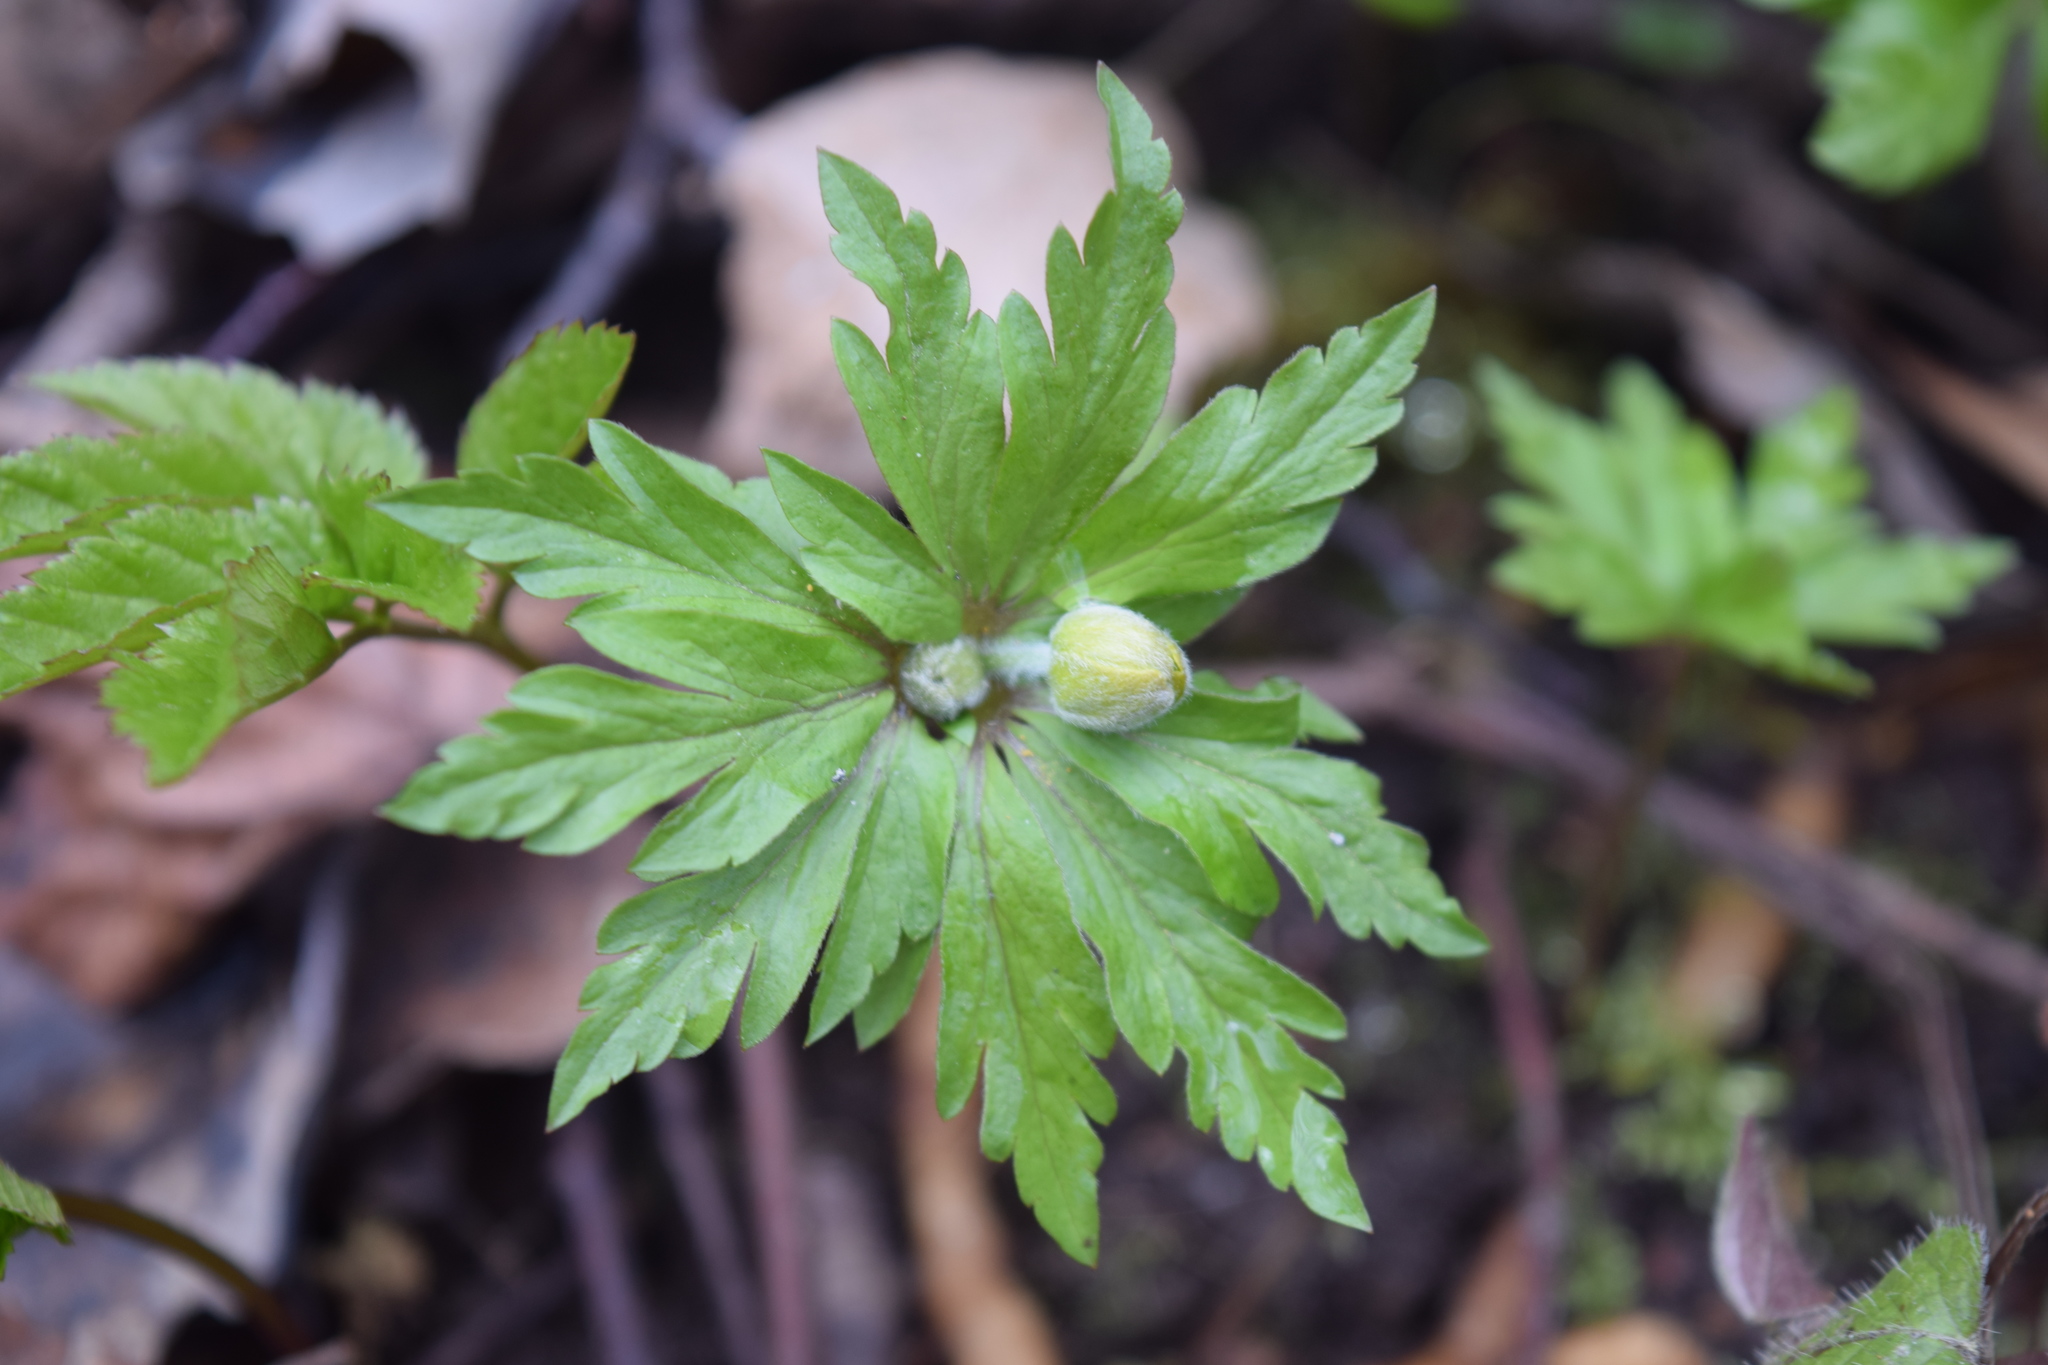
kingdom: Plantae
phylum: Tracheophyta
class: Magnoliopsida
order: Ranunculales
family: Ranunculaceae
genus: Anemone
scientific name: Anemone ranunculoides
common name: Yellow anemone
